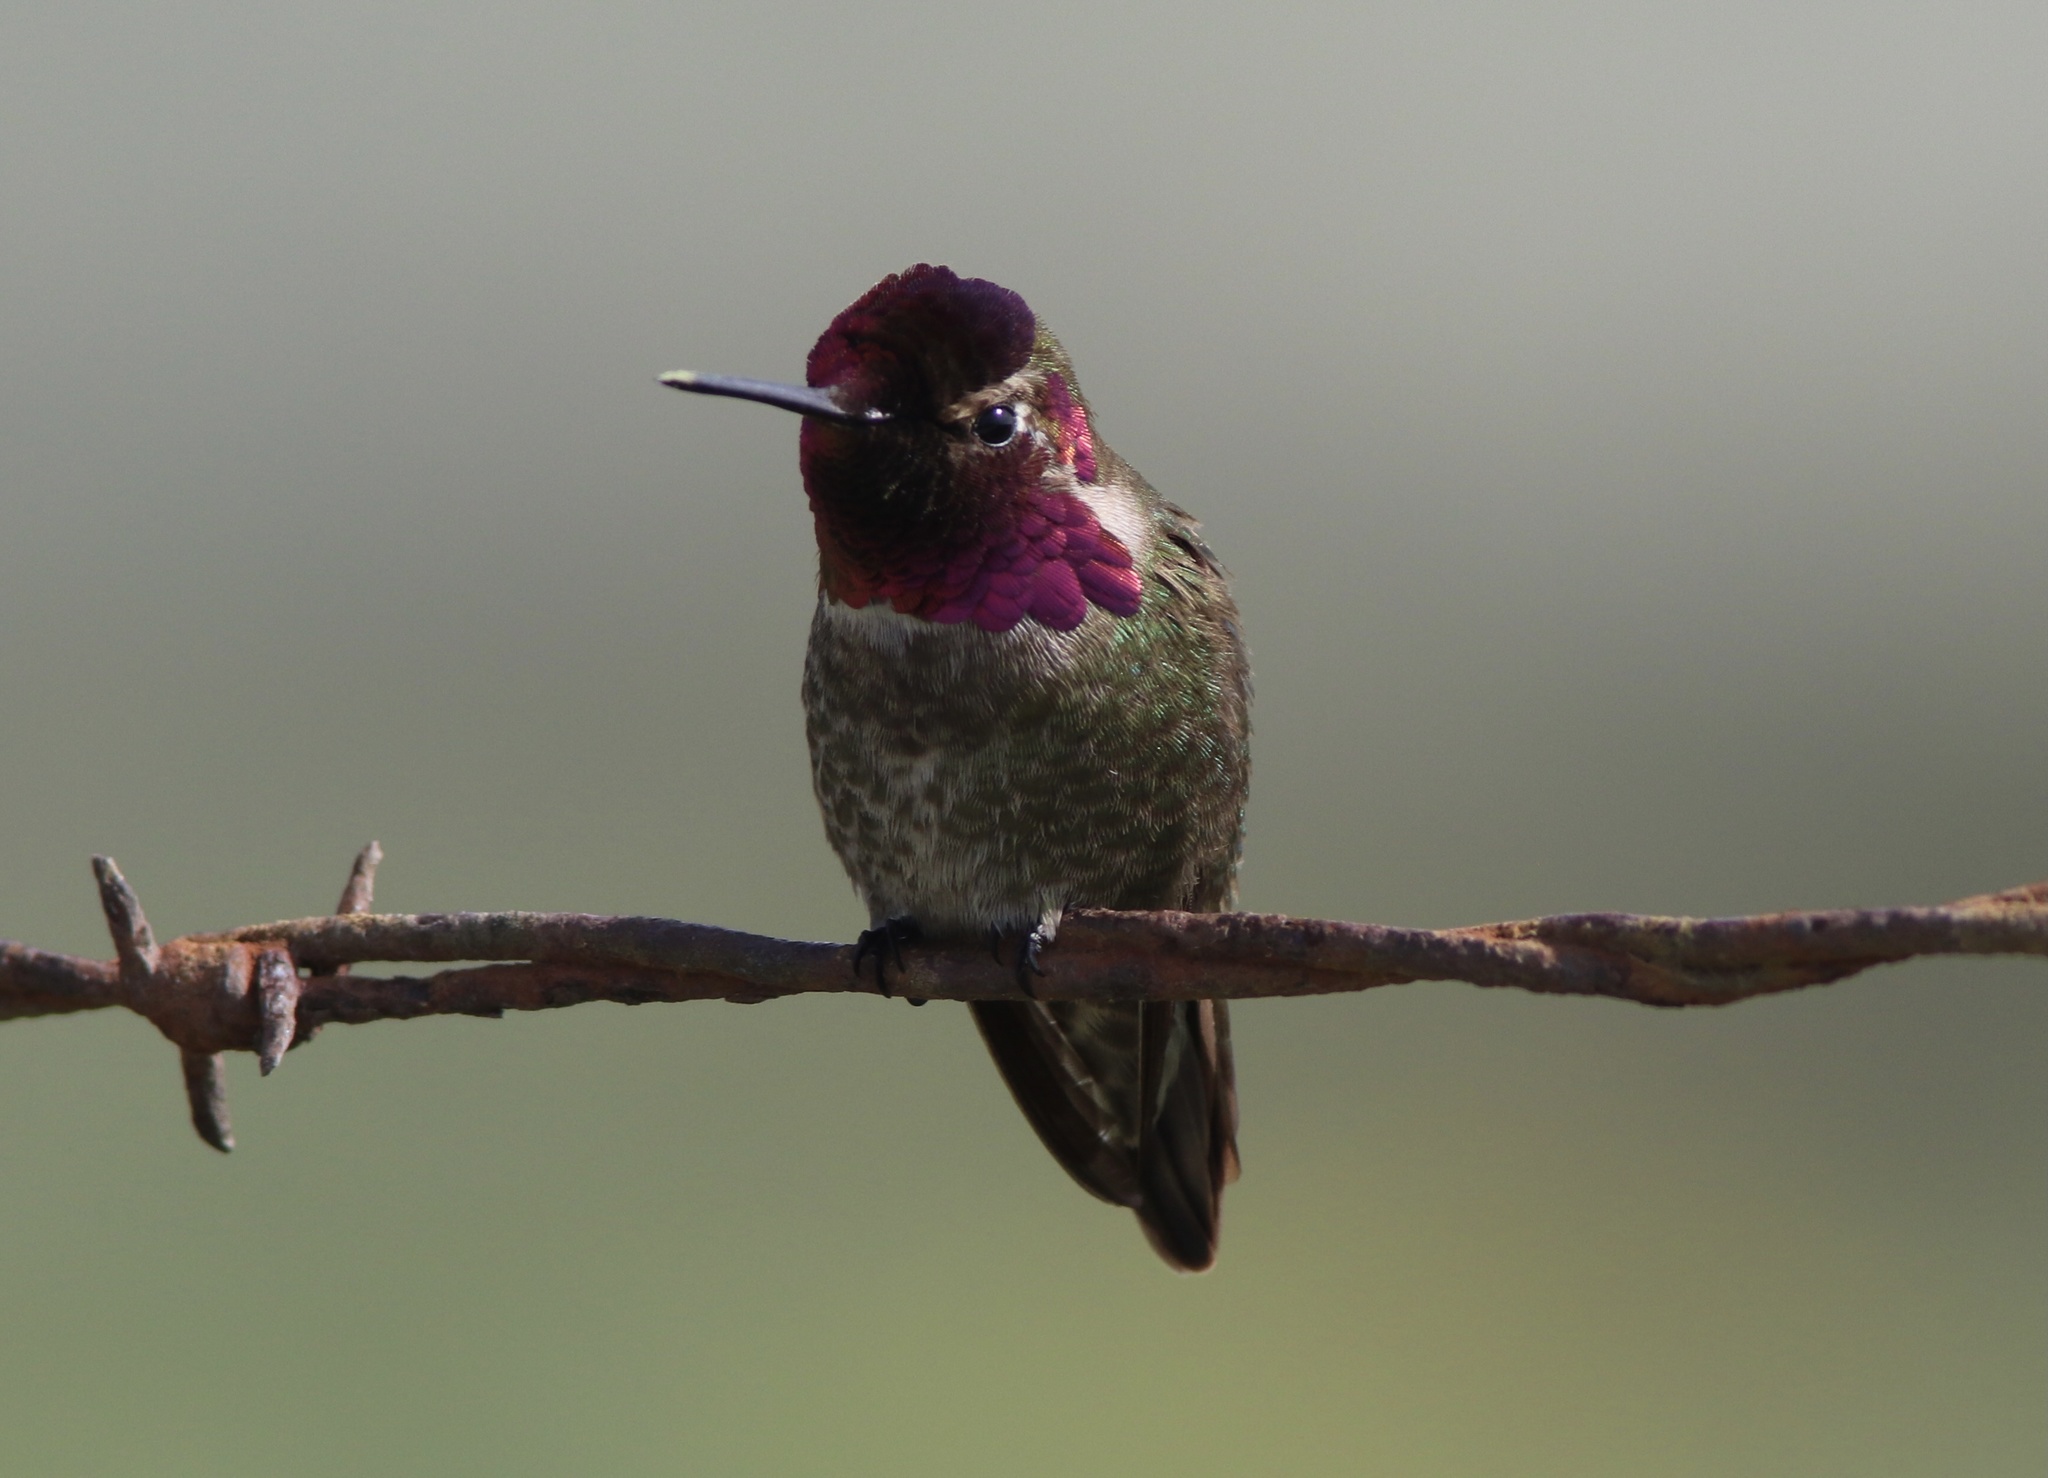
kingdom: Animalia
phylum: Chordata
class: Aves
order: Apodiformes
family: Trochilidae
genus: Calypte
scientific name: Calypte anna
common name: Anna's hummingbird
